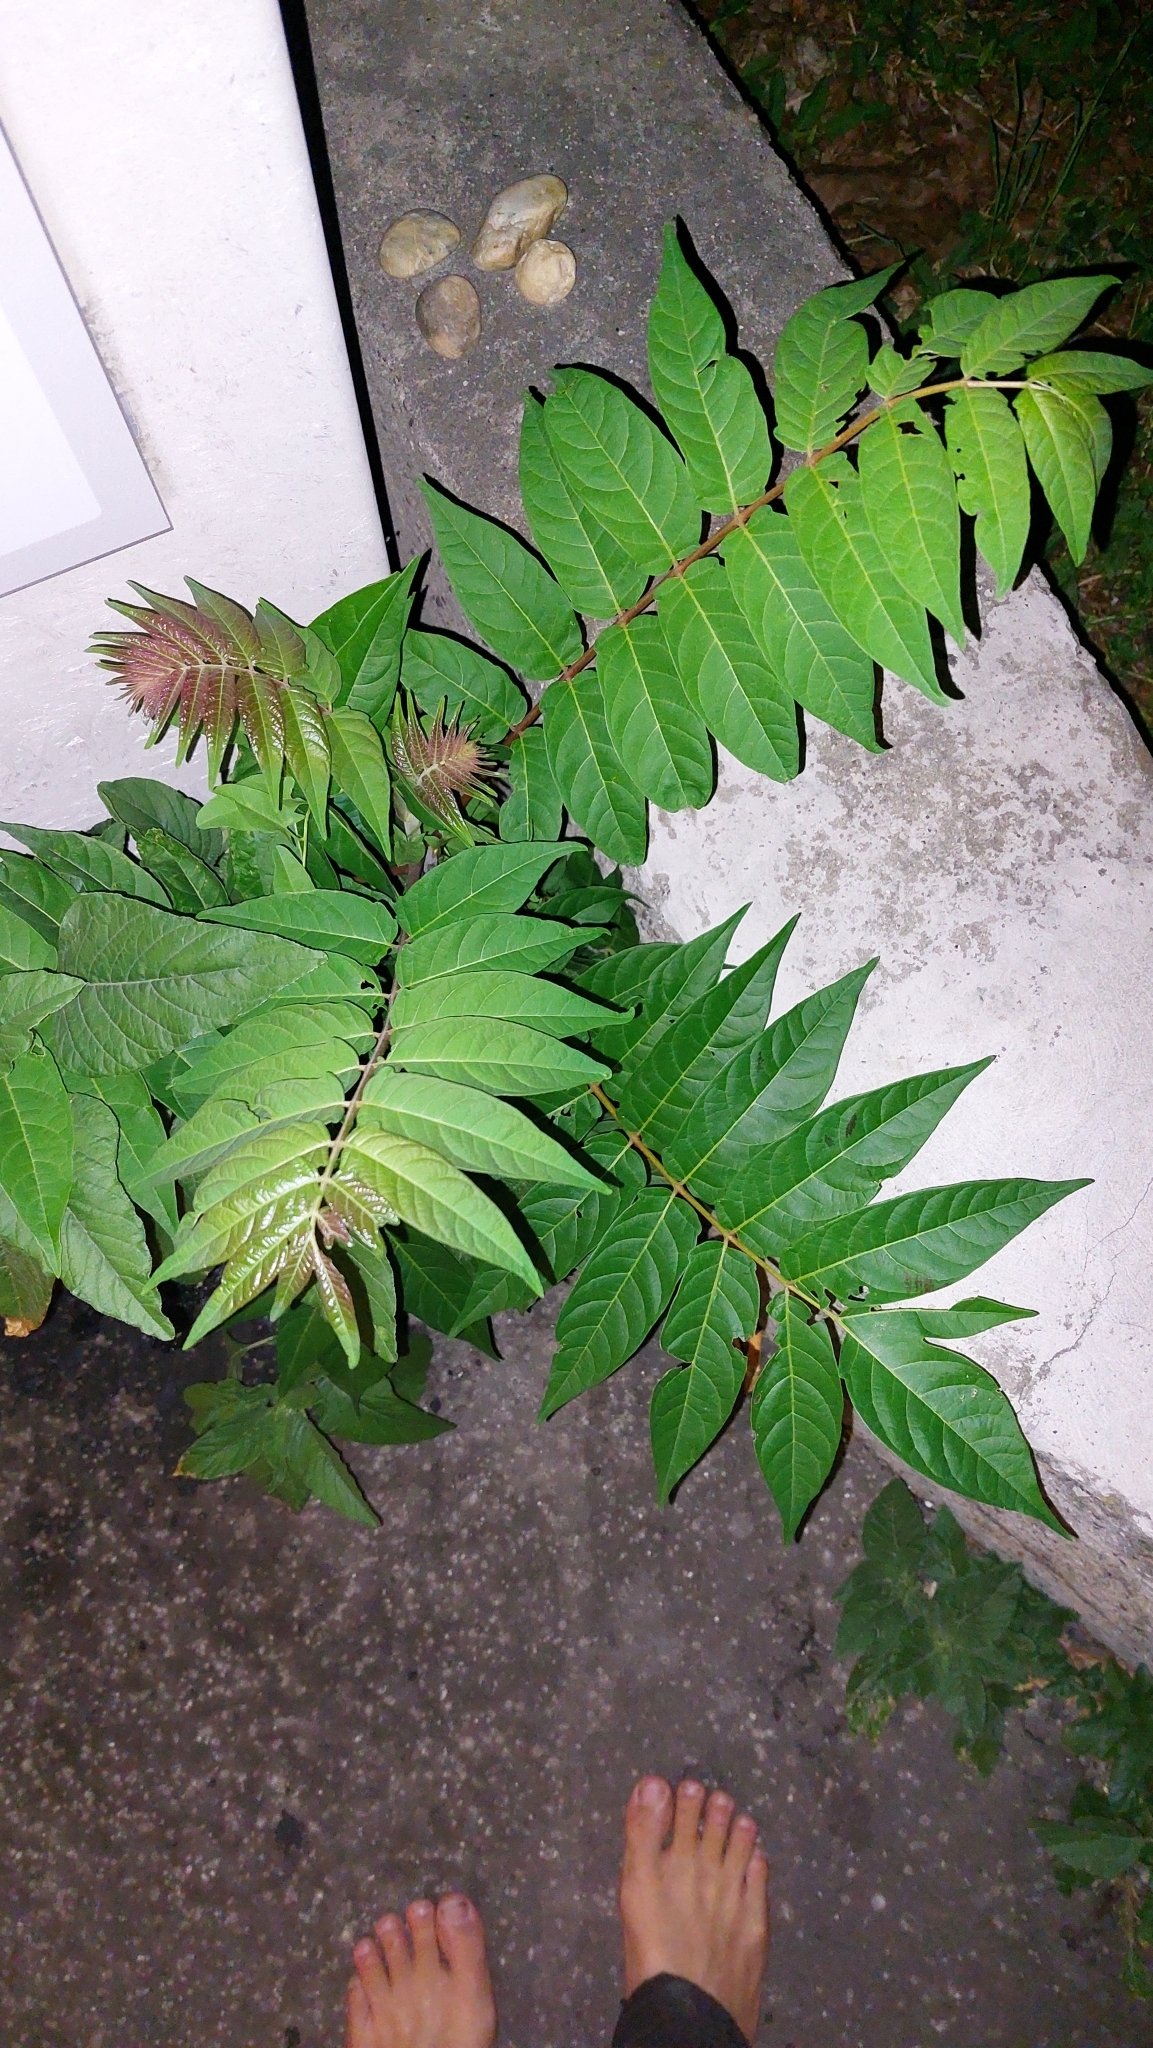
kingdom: Plantae
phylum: Tracheophyta
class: Magnoliopsida
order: Sapindales
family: Simaroubaceae
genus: Ailanthus
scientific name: Ailanthus altissima
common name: Tree-of-heaven
